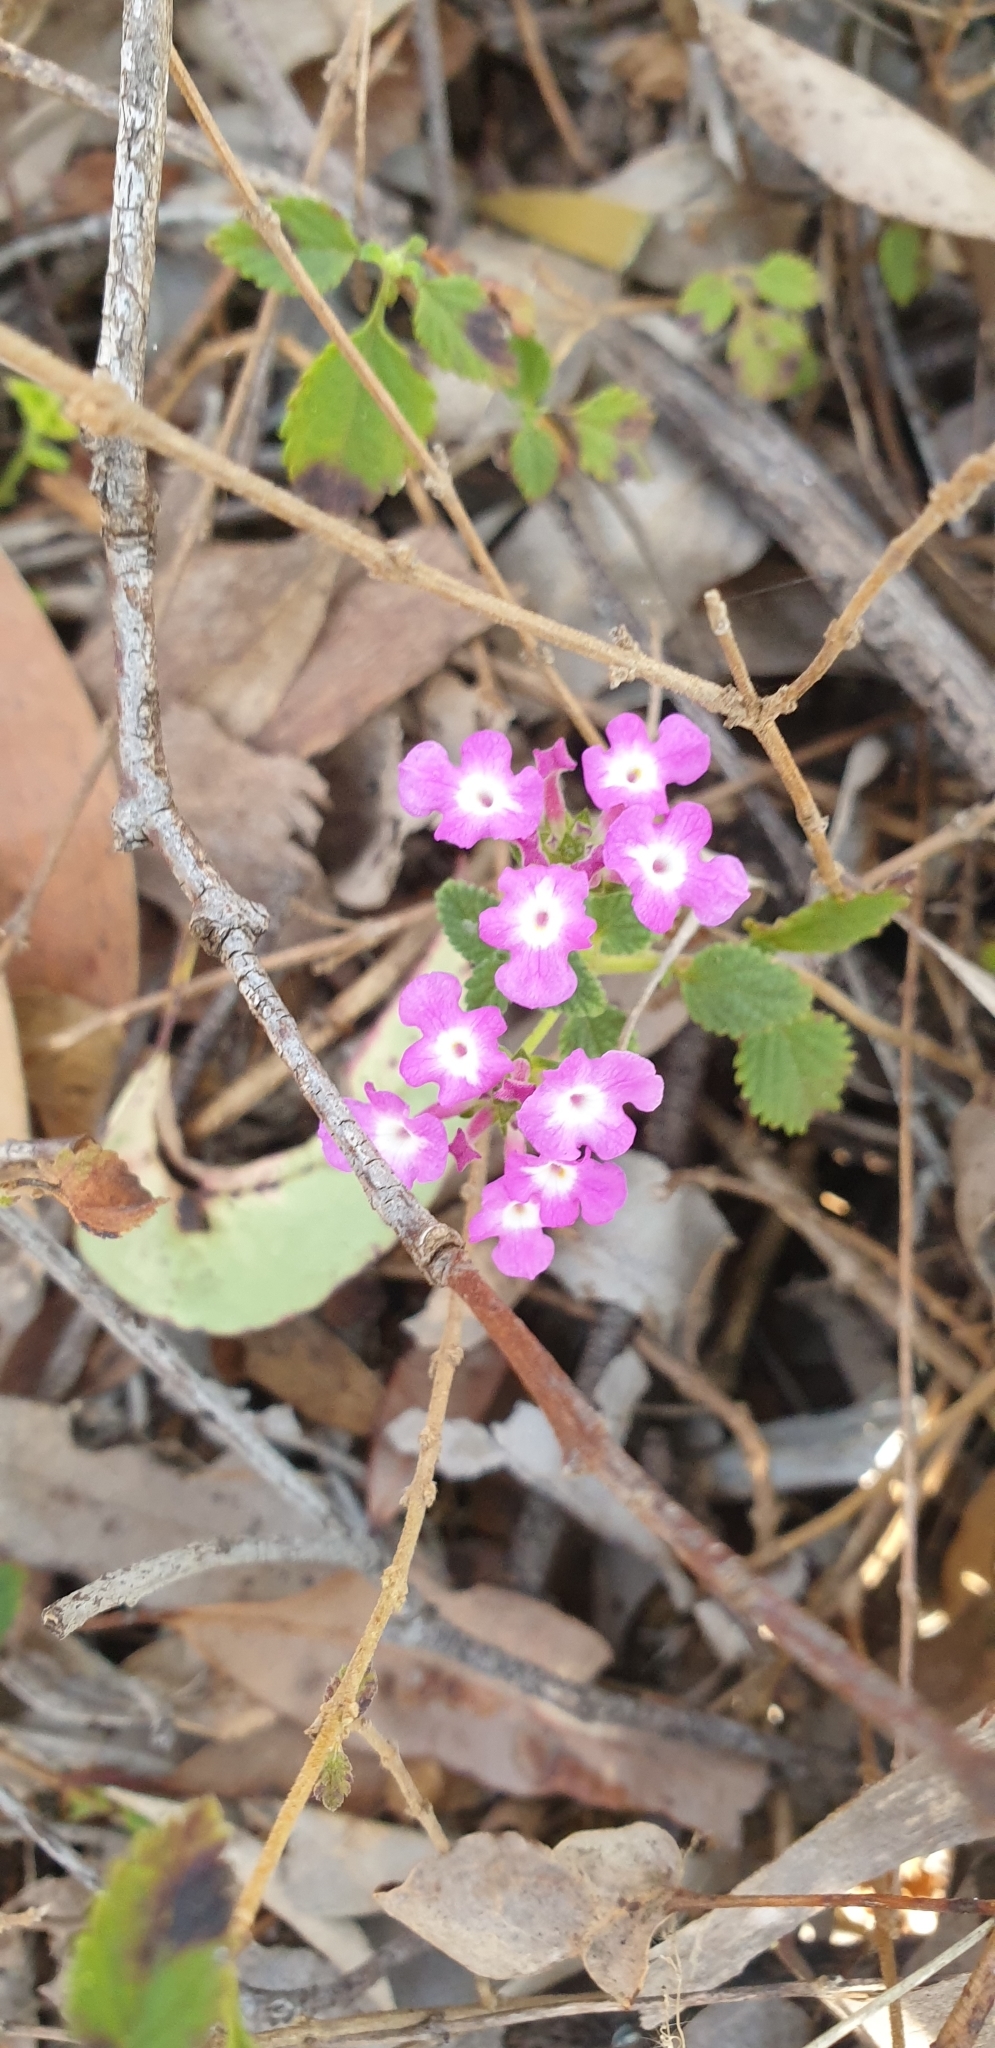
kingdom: Plantae
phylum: Tracheophyta
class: Magnoliopsida
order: Lamiales
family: Verbenaceae
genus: Lantana
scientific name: Lantana montevidensis
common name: Trailing shrubverbena
